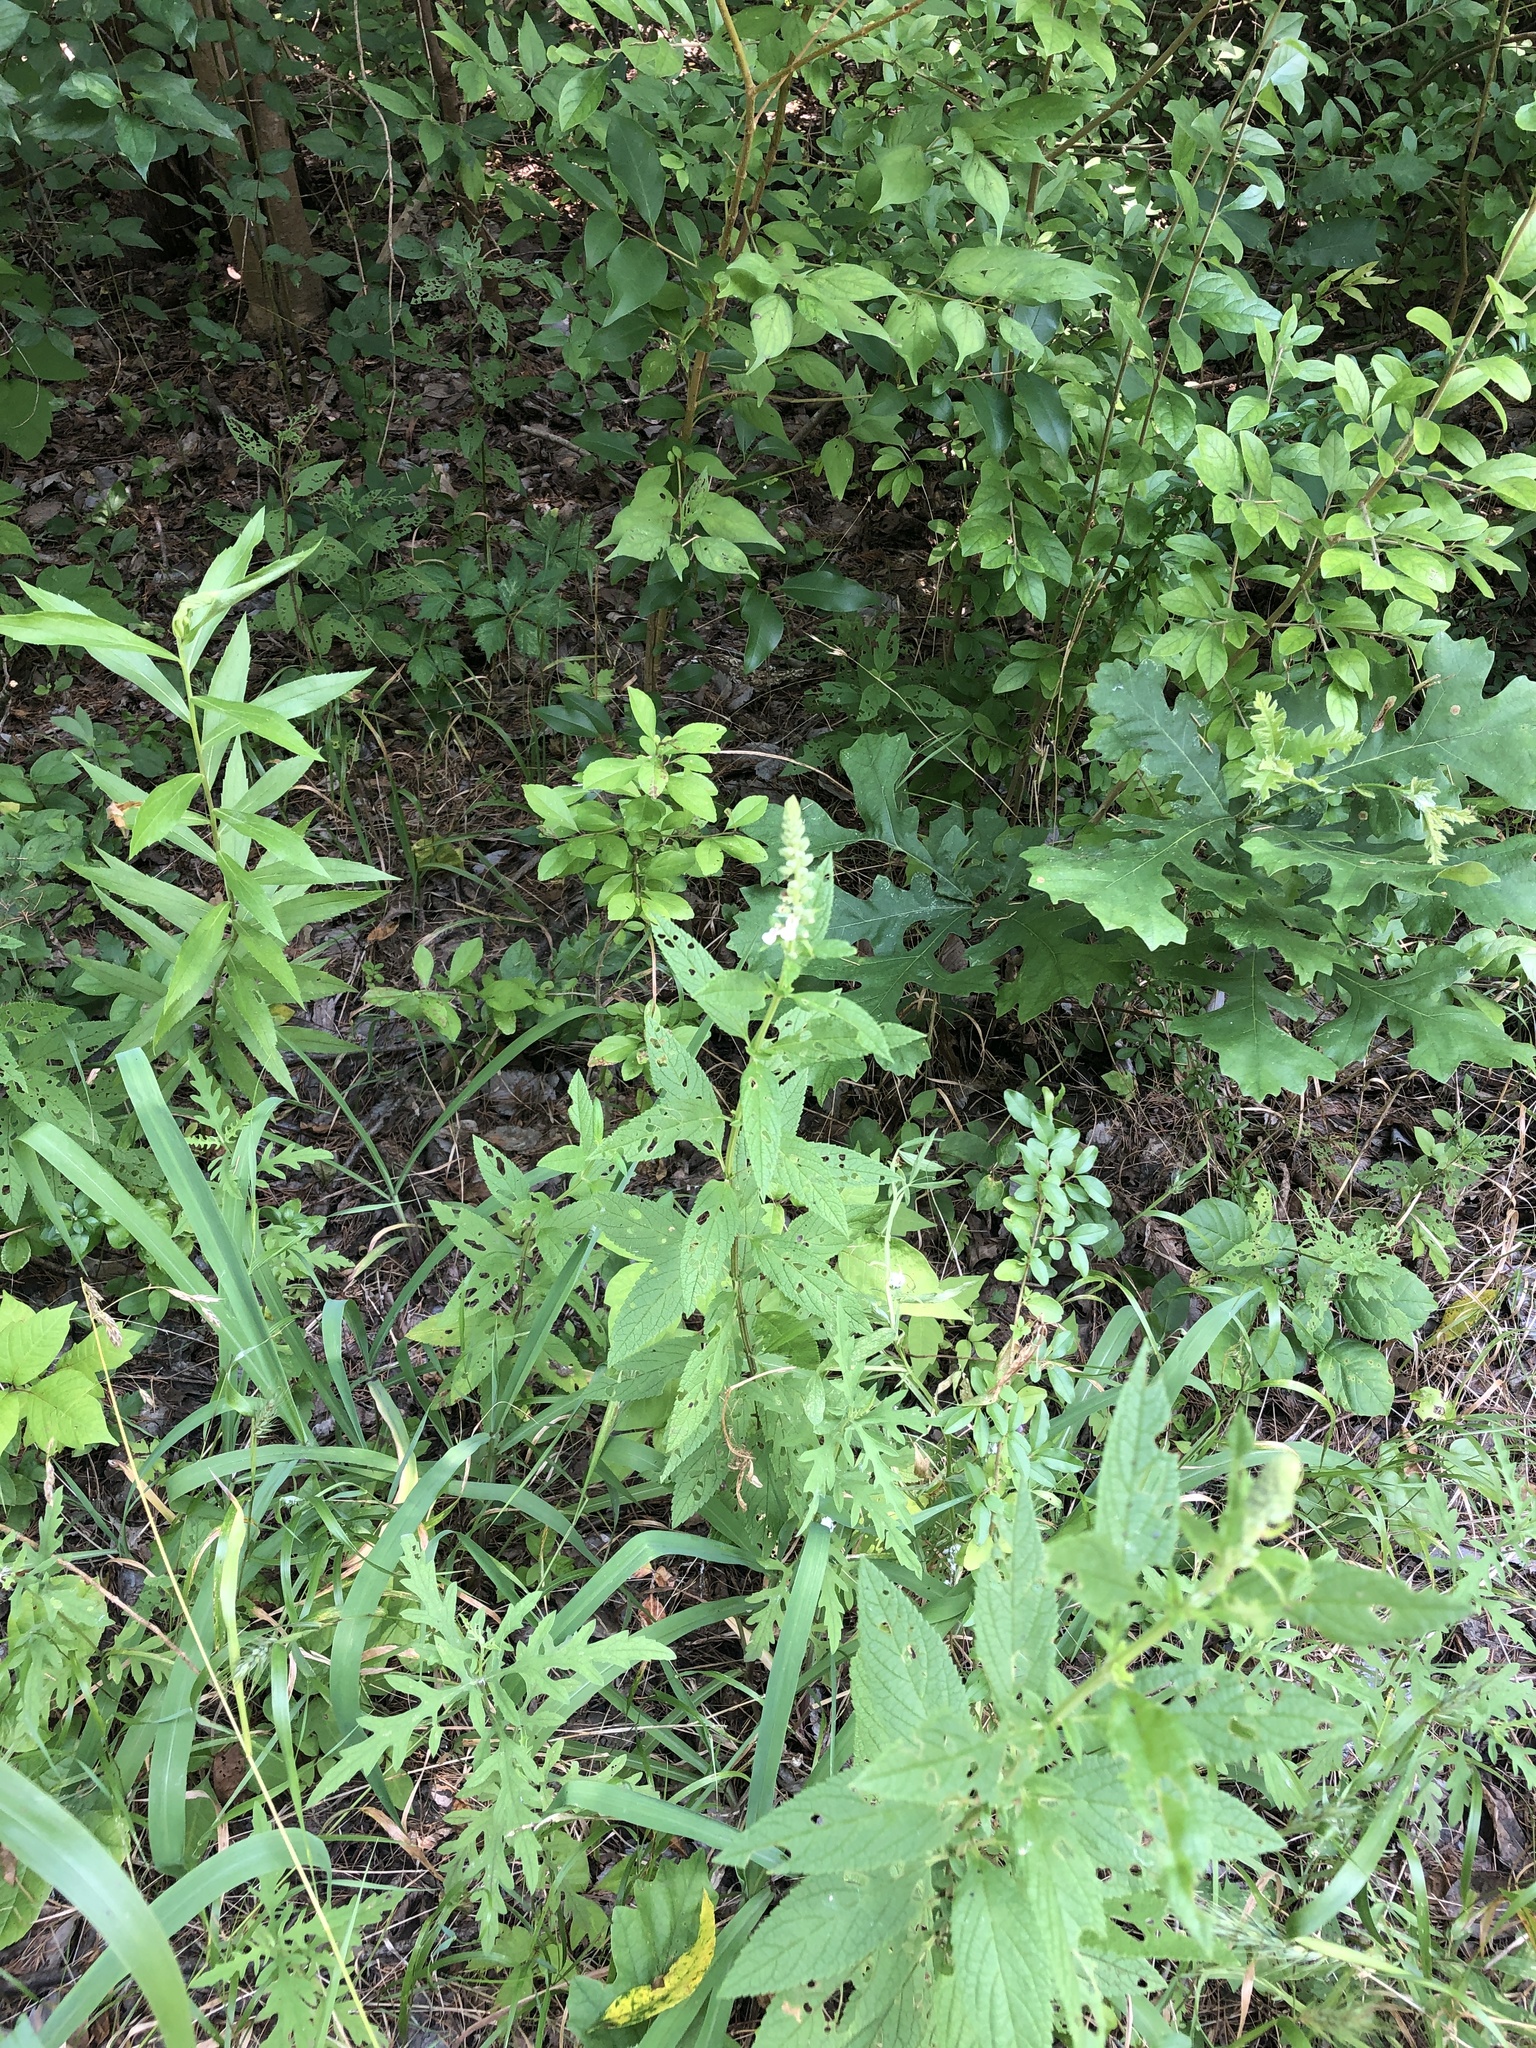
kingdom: Plantae
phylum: Tracheophyta
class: Magnoliopsida
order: Lamiales
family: Lamiaceae
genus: Teucrium
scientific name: Teucrium canadense
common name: American germander
